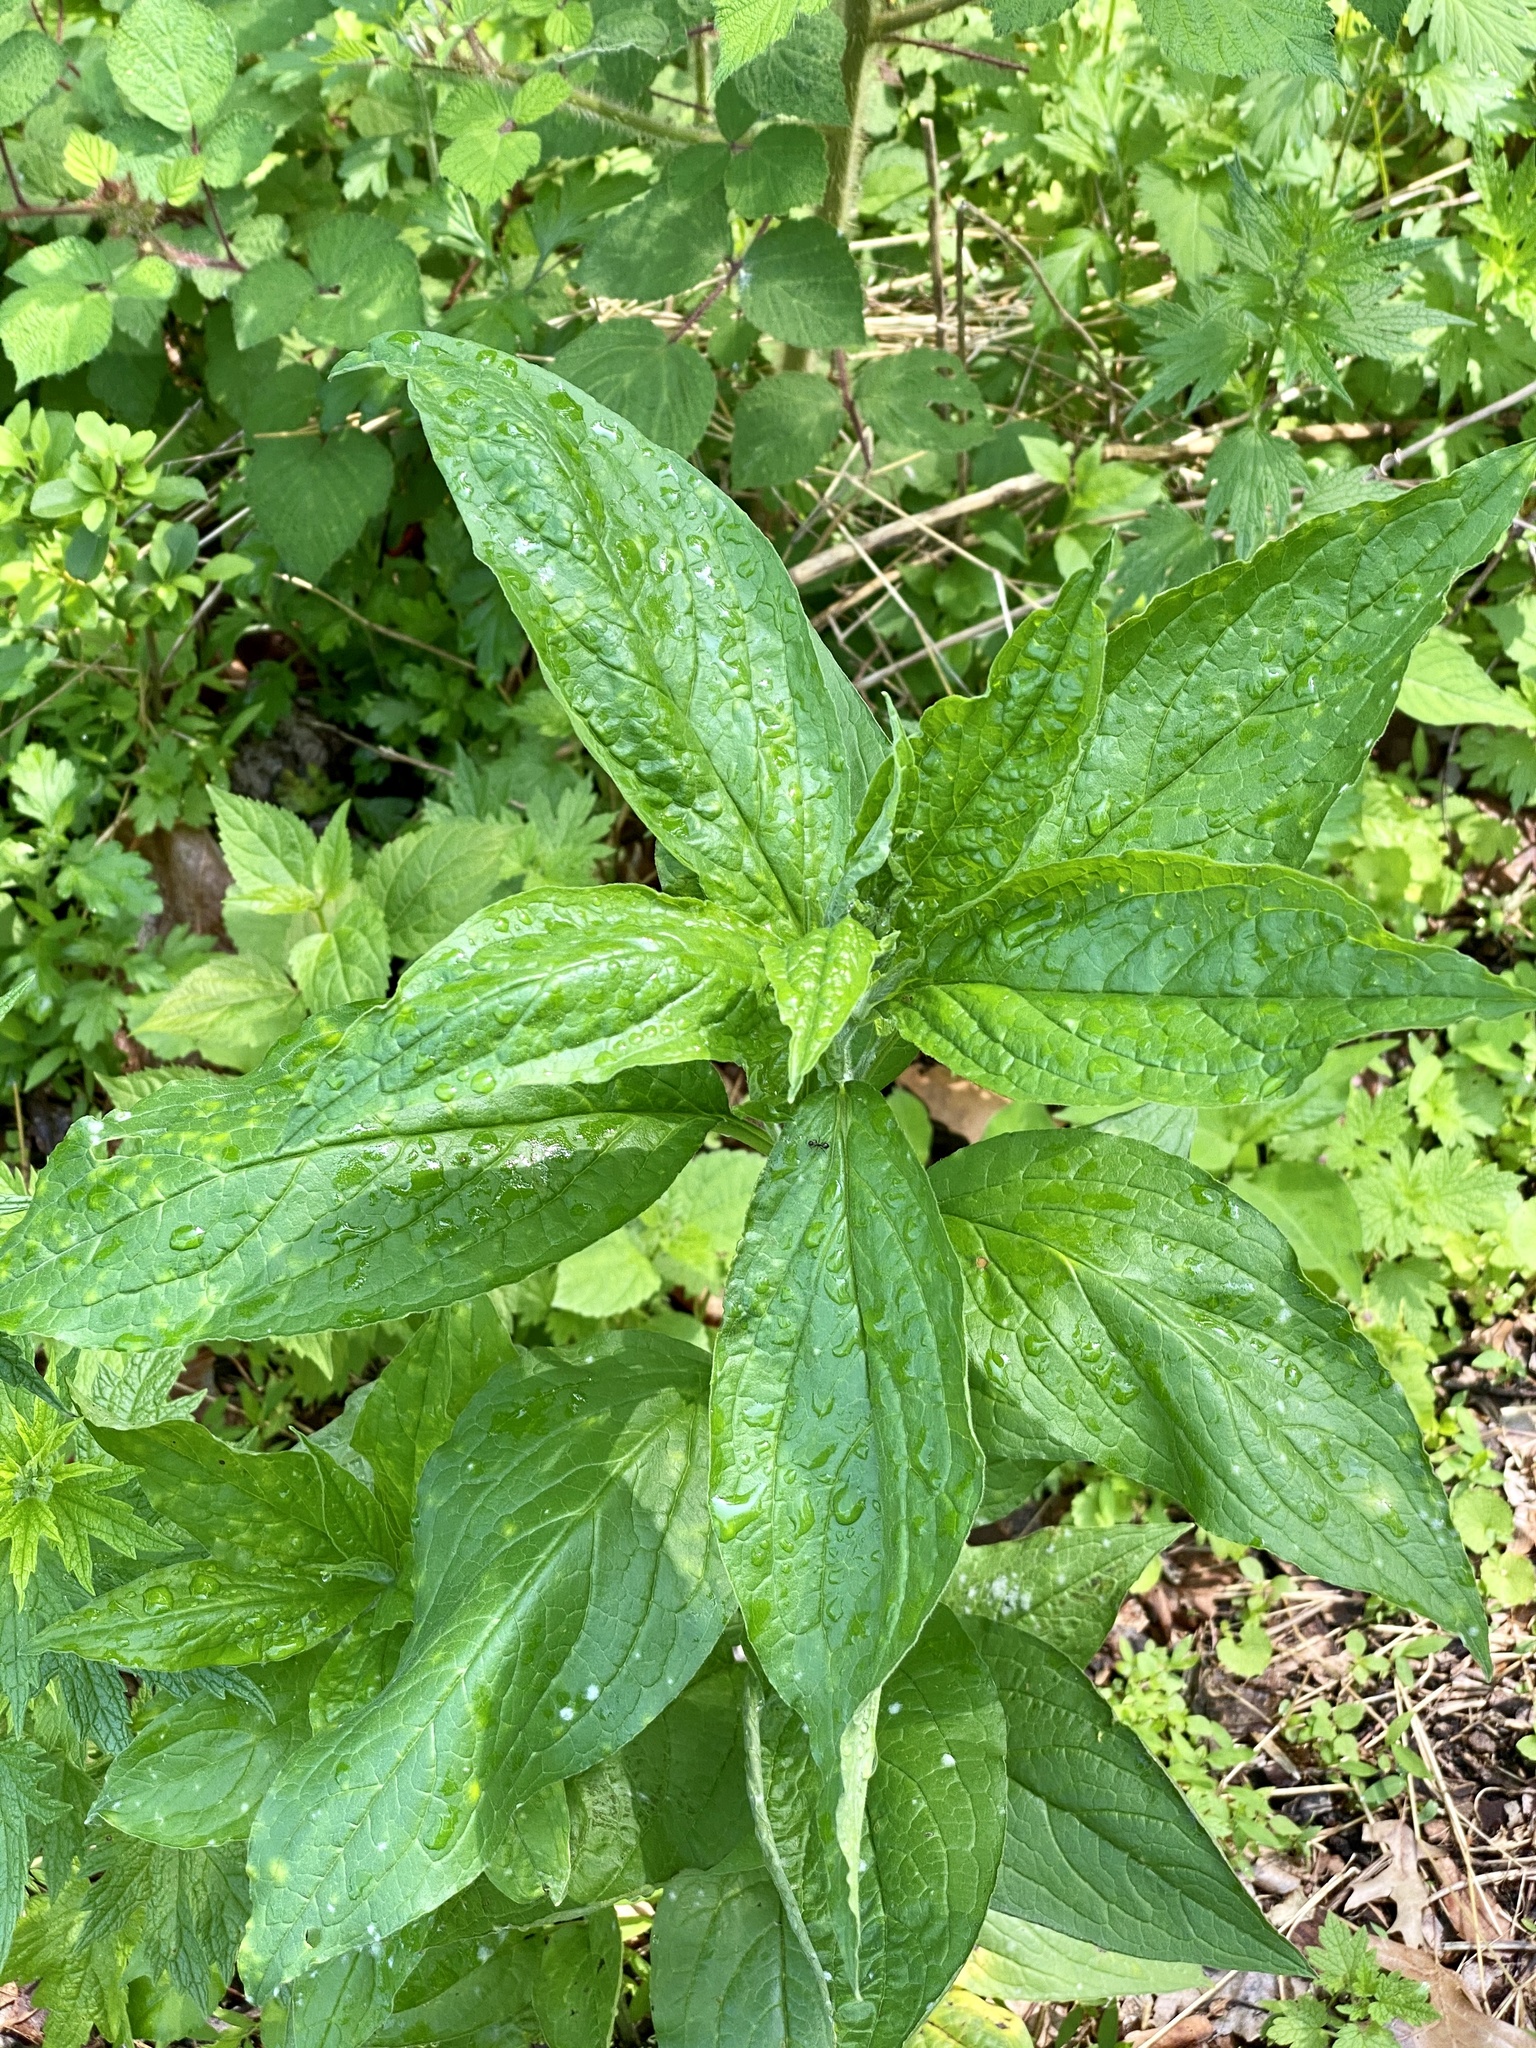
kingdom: Plantae
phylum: Tracheophyta
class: Magnoliopsida
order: Boraginales
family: Boraginaceae
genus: Hackelia
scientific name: Hackelia virginiana
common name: Beggar's-lice
